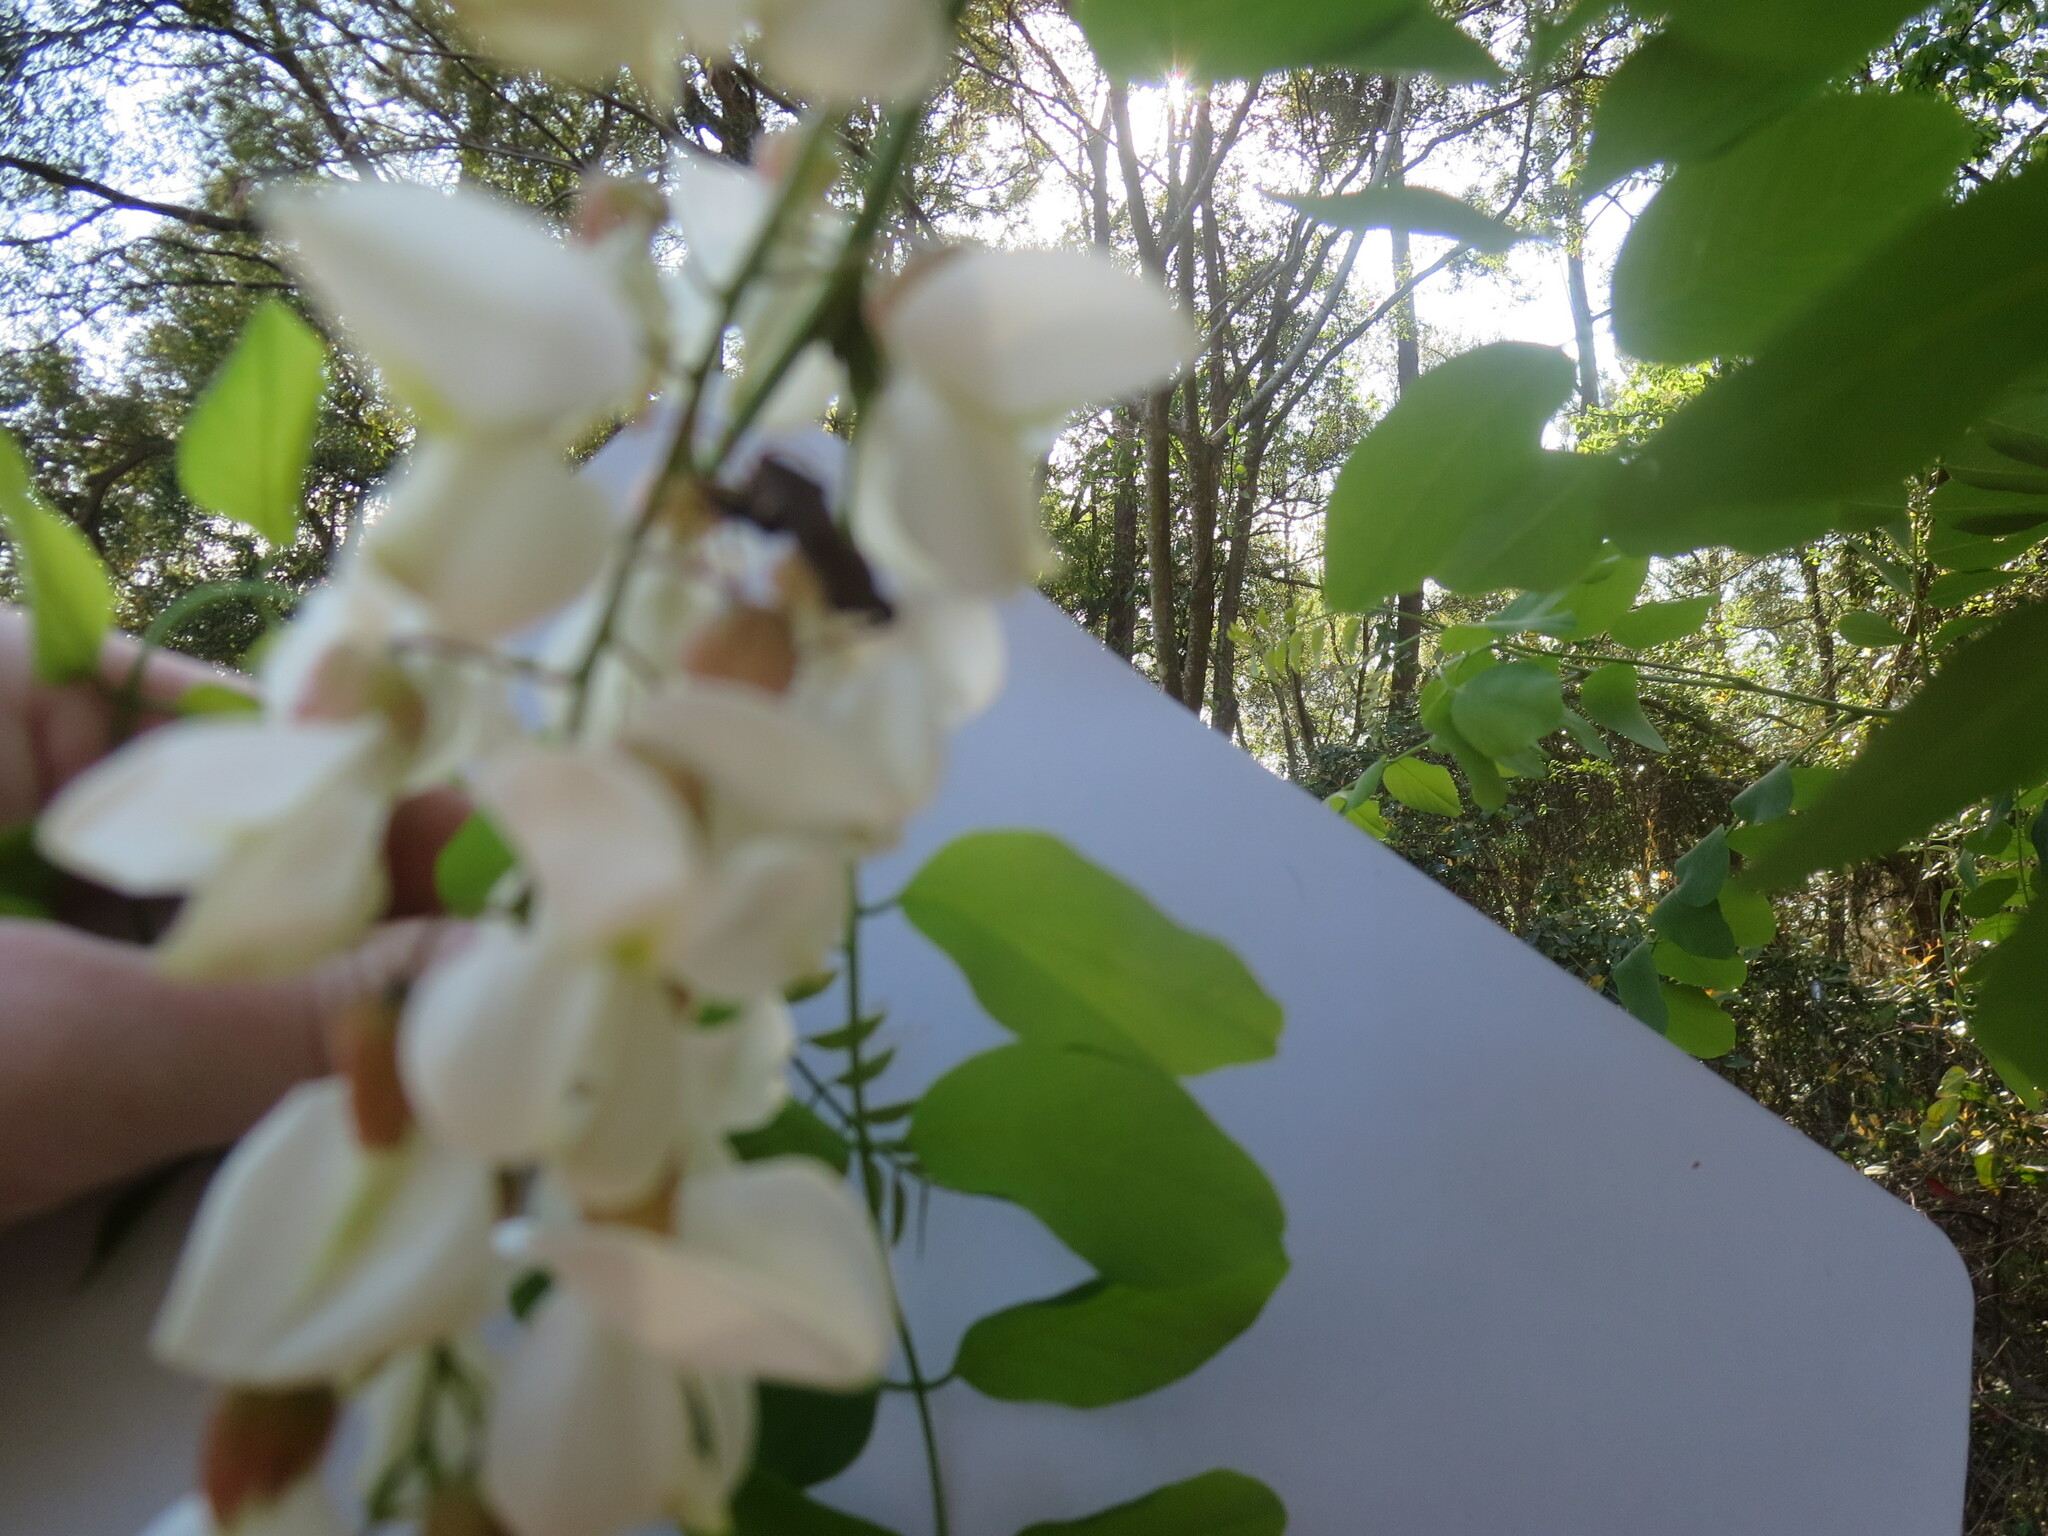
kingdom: Animalia
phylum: Arthropoda
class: Insecta
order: Hemiptera
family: Coreidae
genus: Euthochtha
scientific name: Euthochtha galeator
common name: Helmeted squash bug
